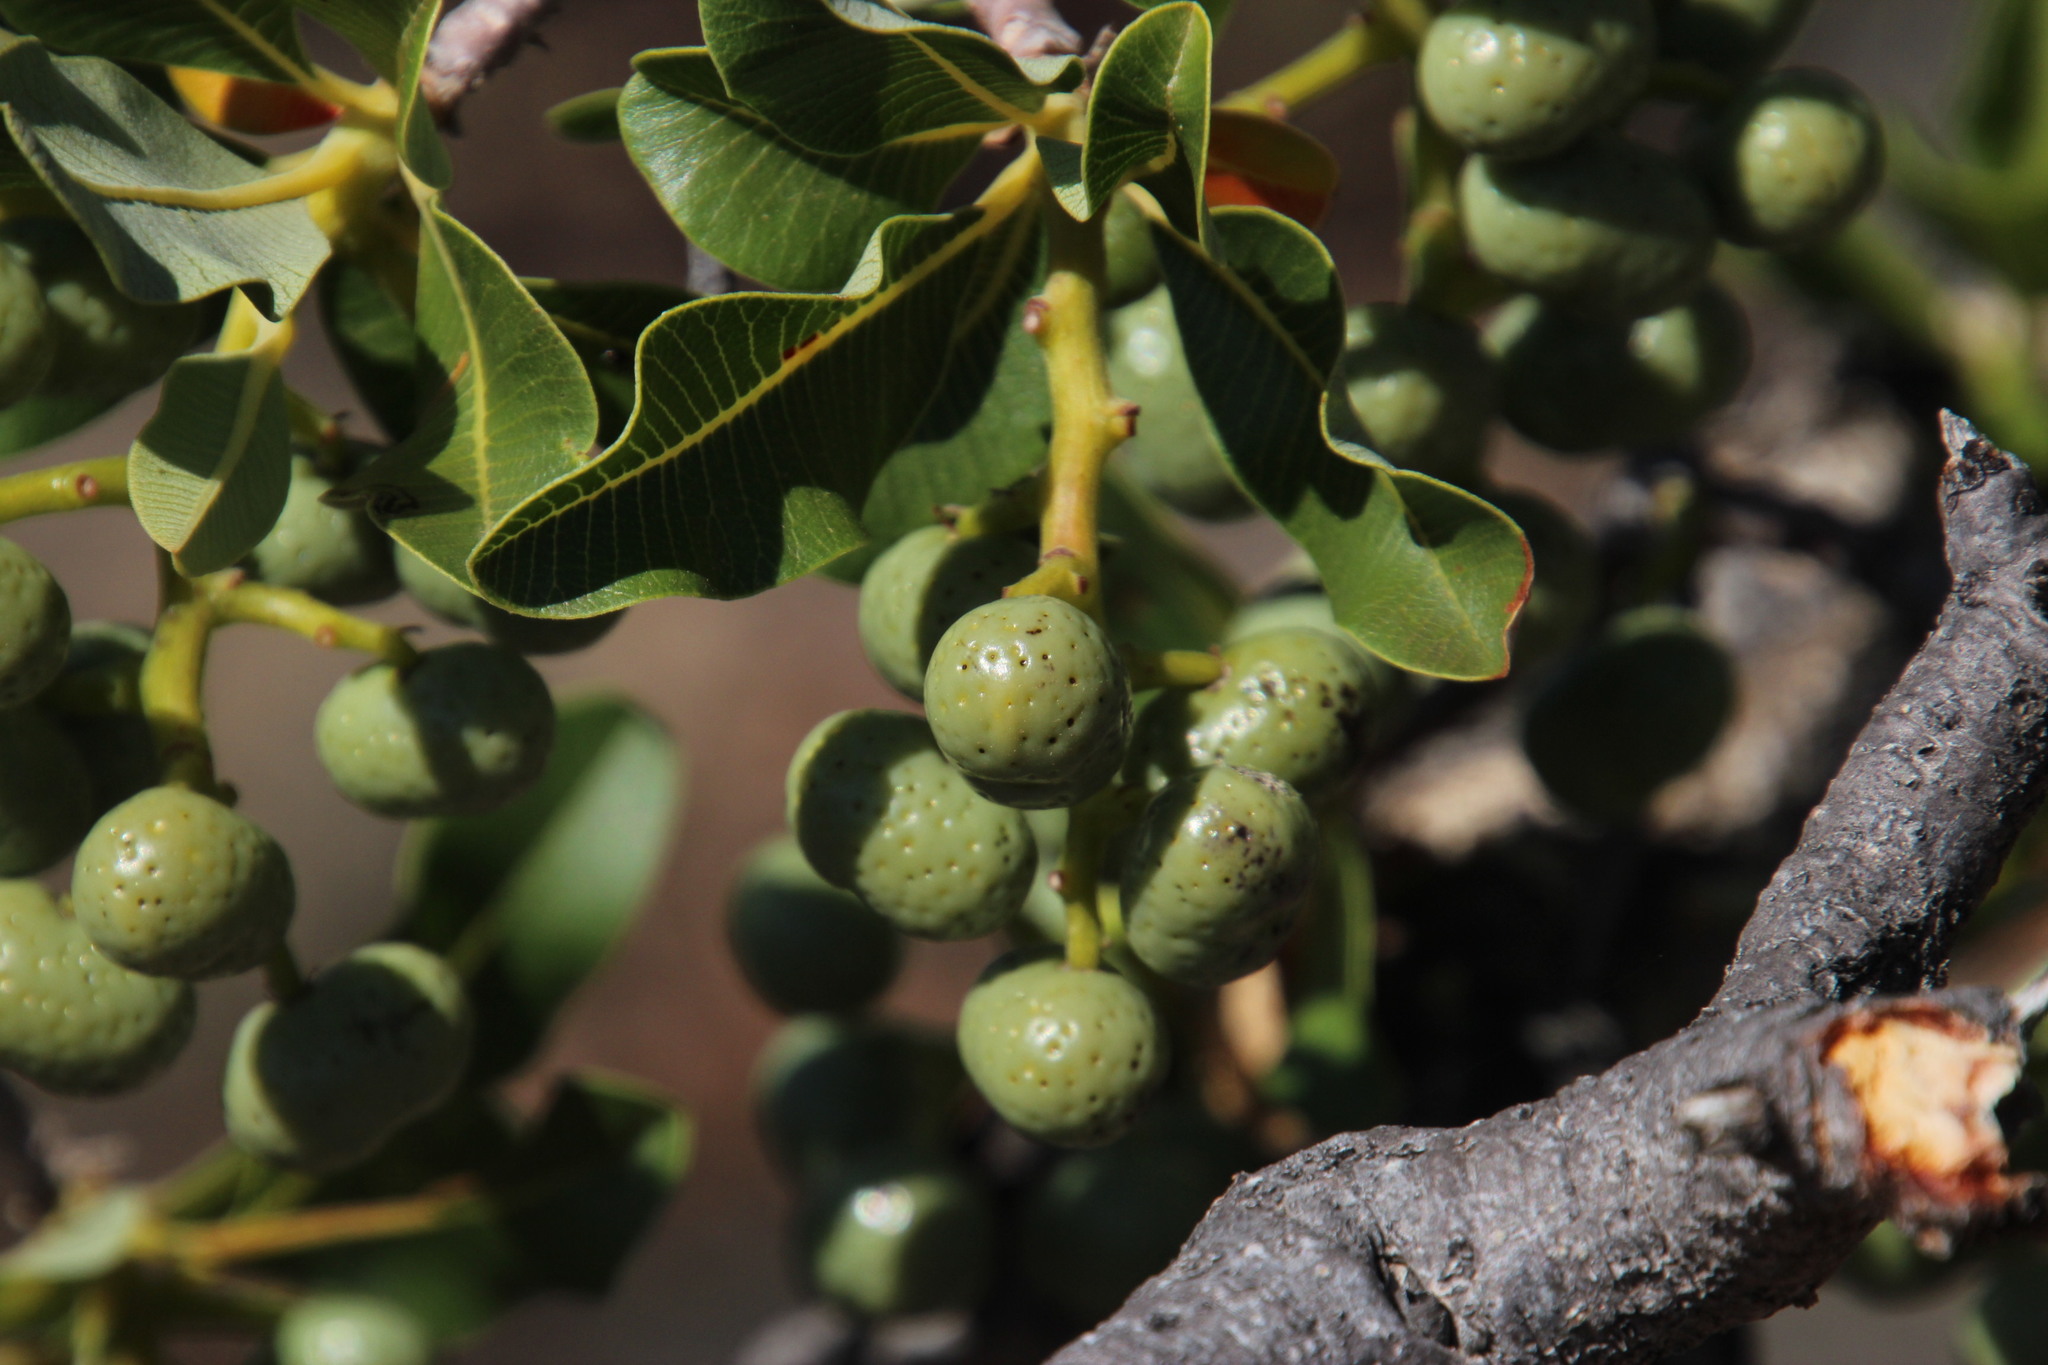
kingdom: Plantae
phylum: Tracheophyta
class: Magnoliopsida
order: Sapindales
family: Anacardiaceae
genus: Ozoroa
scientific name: Ozoroa dispar
